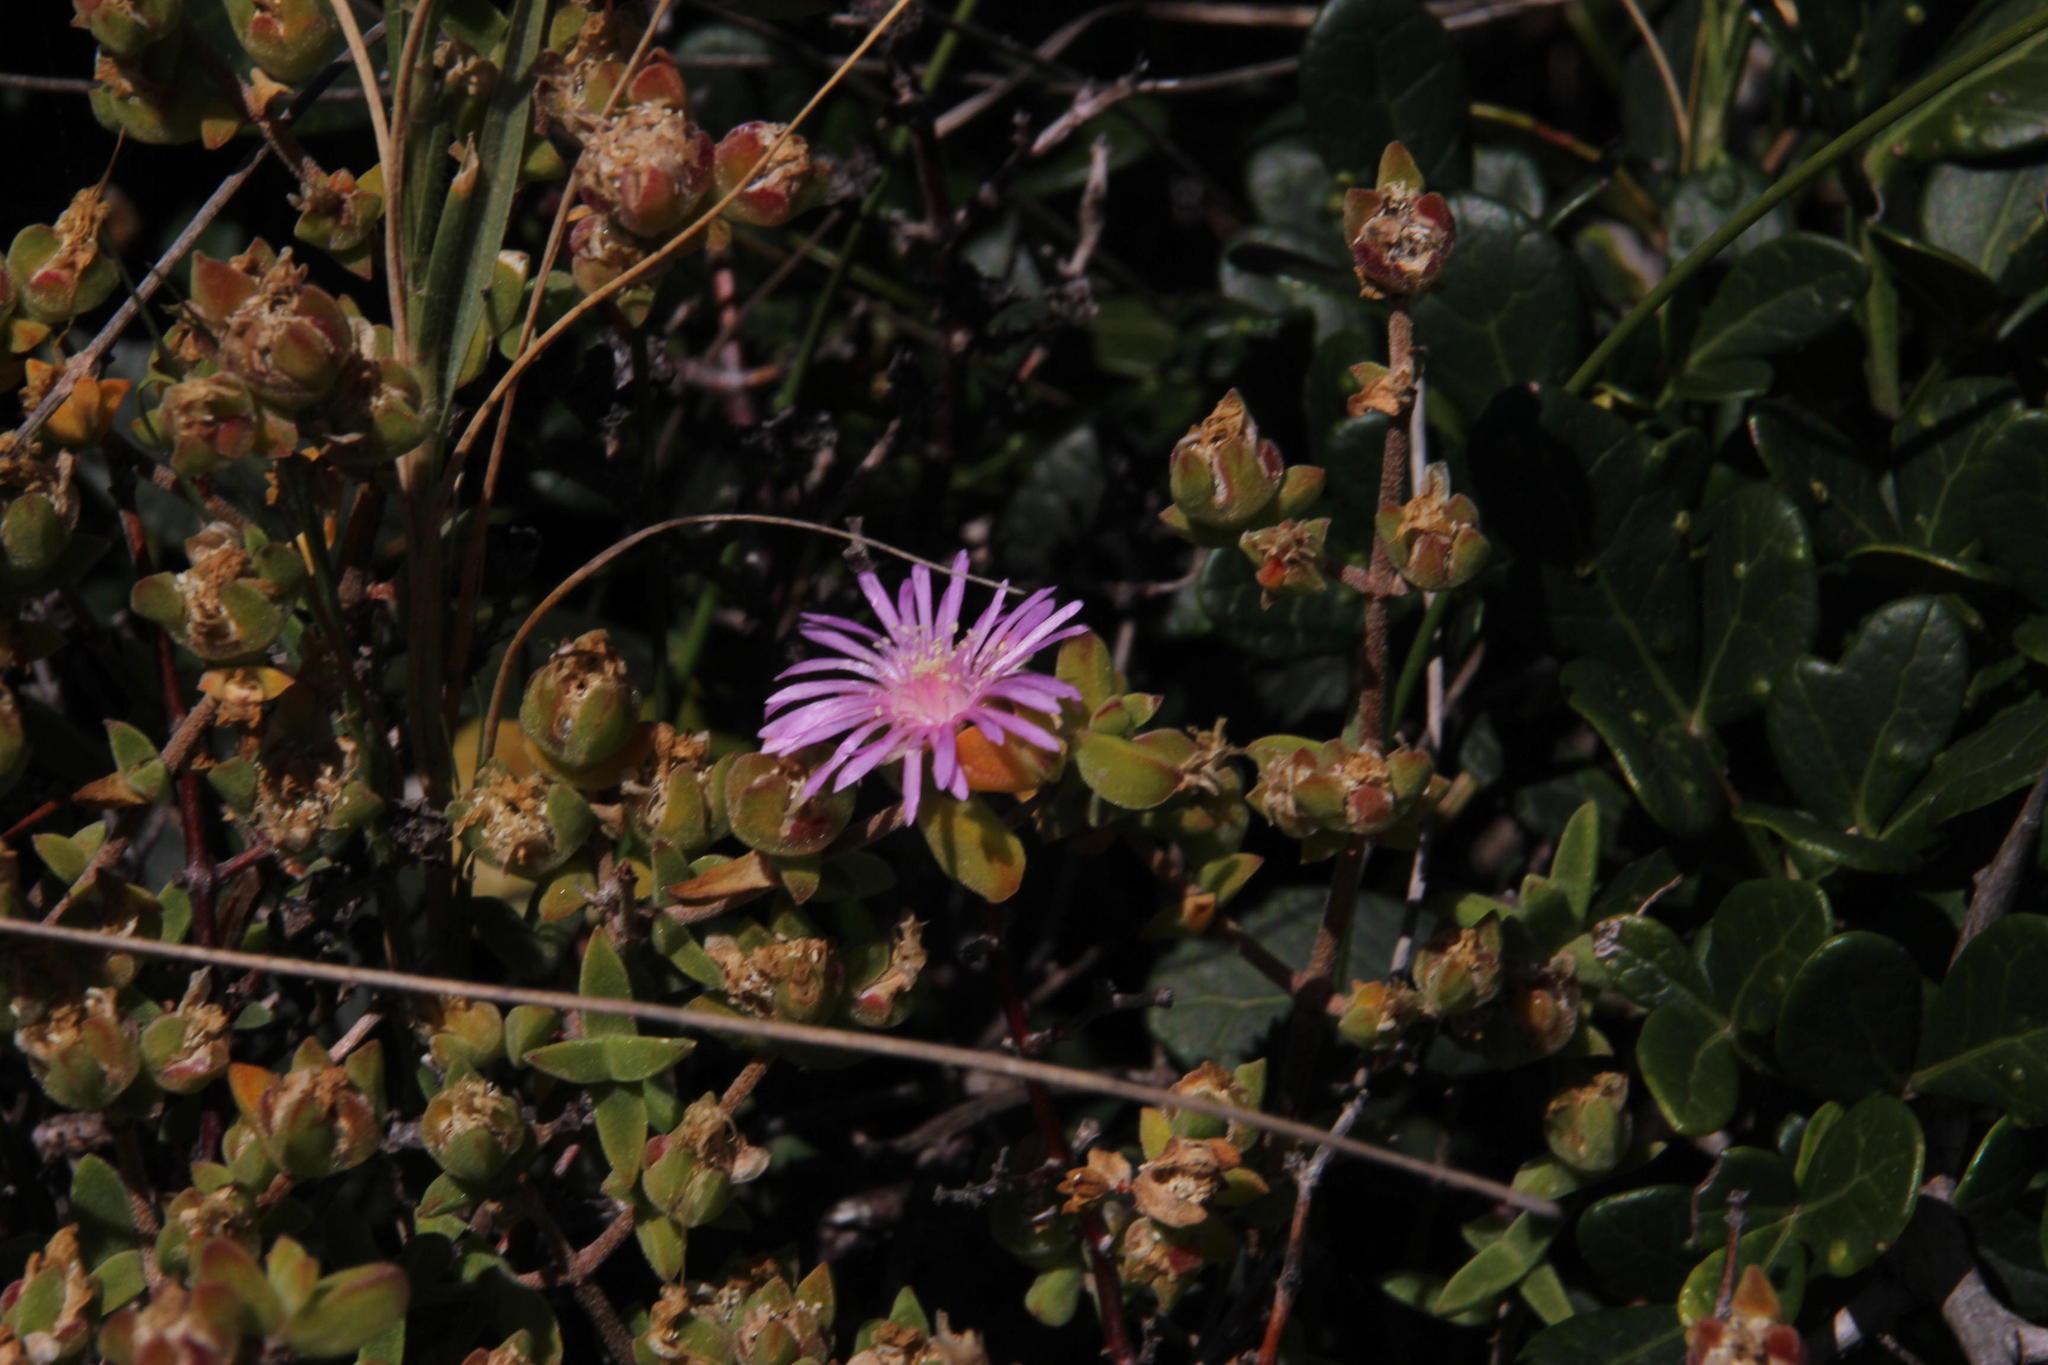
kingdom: Plantae
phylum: Tracheophyta
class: Magnoliopsida
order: Caryophyllales
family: Aizoaceae
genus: Drosanthemum
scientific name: Drosanthemum parvifolium
